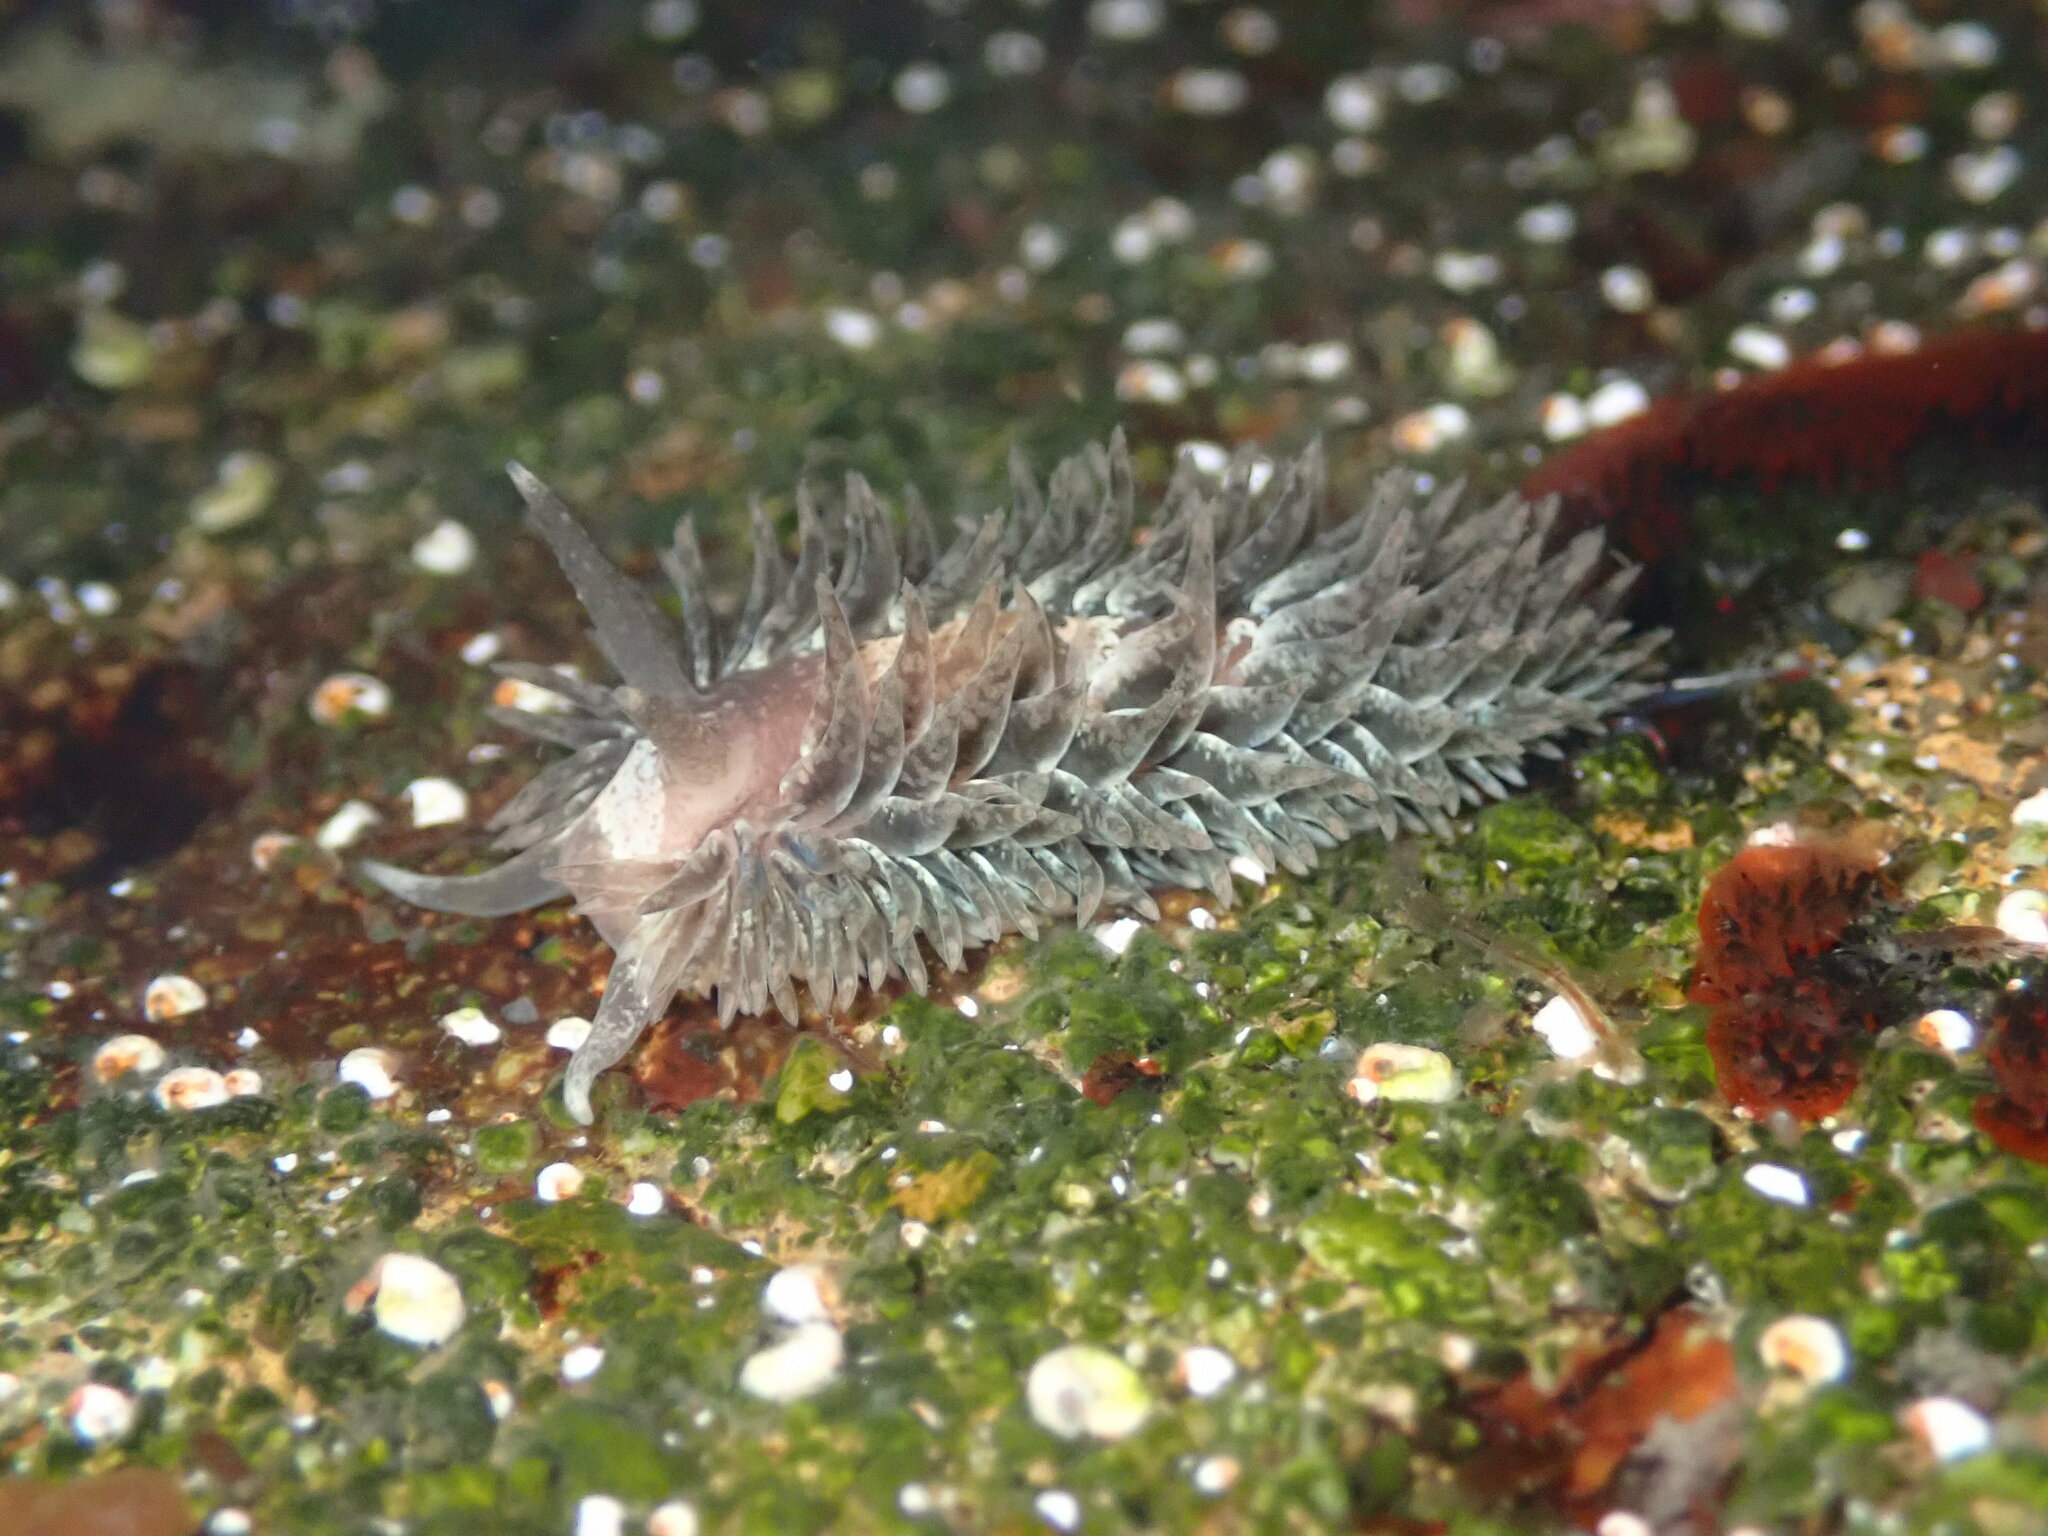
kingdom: Animalia
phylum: Mollusca
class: Gastropoda
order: Nudibranchia
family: Aeolidiidae
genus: Aeolidia
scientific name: Aeolidia loui
